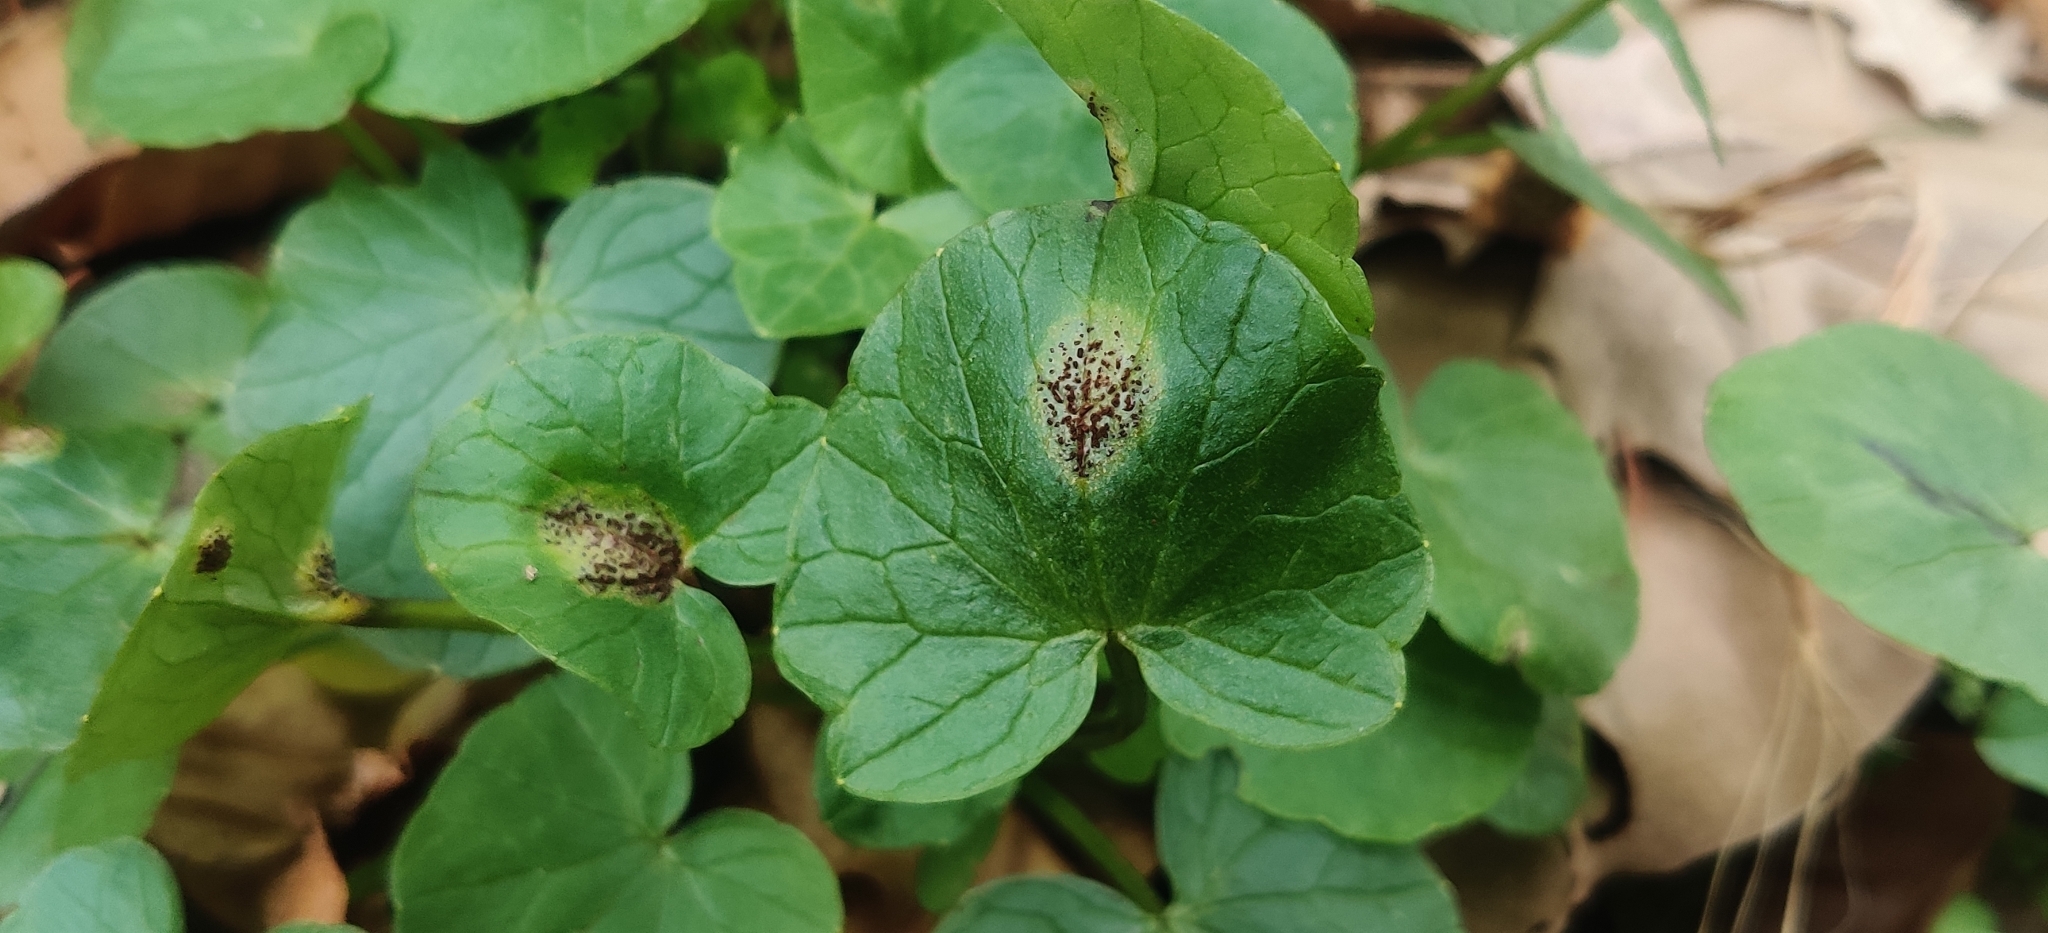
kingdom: Fungi
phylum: Basidiomycota
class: Pucciniomycetes
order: Pucciniales
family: Pucciniaceae
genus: Uromyces
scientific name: Uromyces ficariae
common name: Bitter chocolate rust
